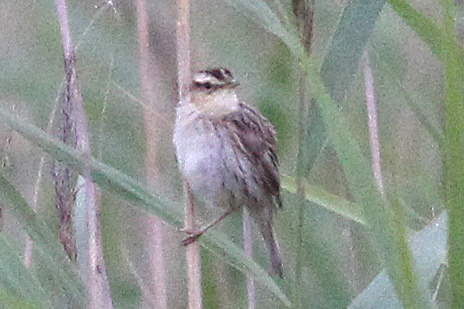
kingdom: Animalia
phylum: Chordata
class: Aves
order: Passeriformes
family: Acrocephalidae
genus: Acrocephalus
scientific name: Acrocephalus paludicola
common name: Aquatic warbler
